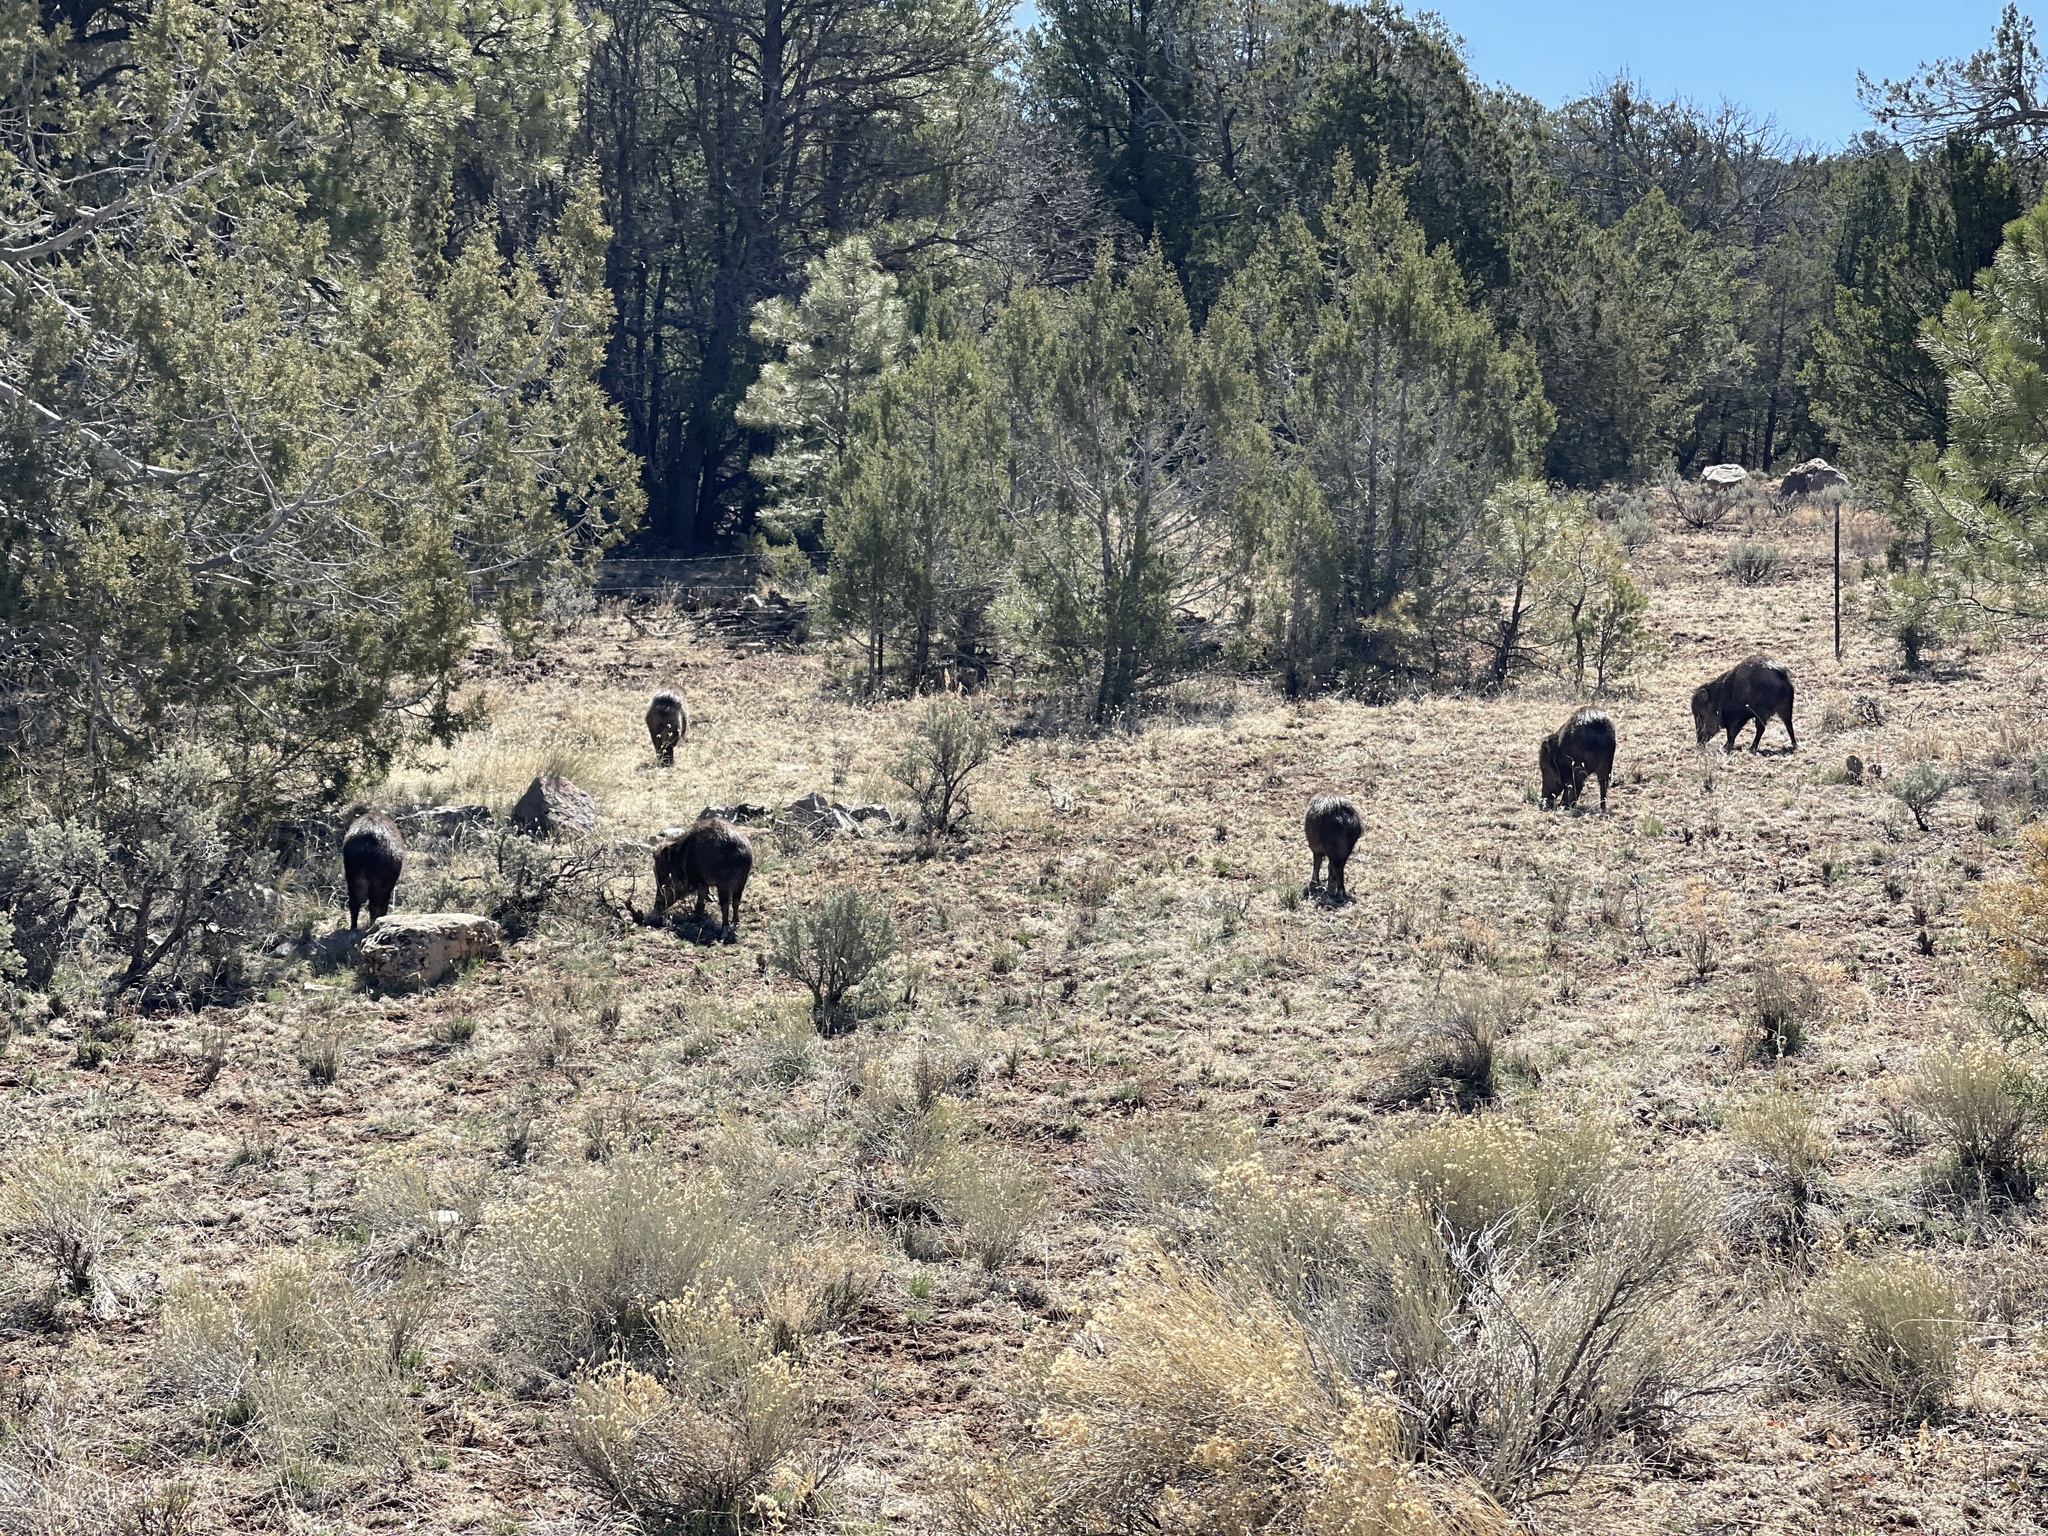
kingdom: Animalia
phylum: Chordata
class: Mammalia
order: Artiodactyla
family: Tayassuidae
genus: Pecari
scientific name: Pecari tajacu
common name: Collared peccary
